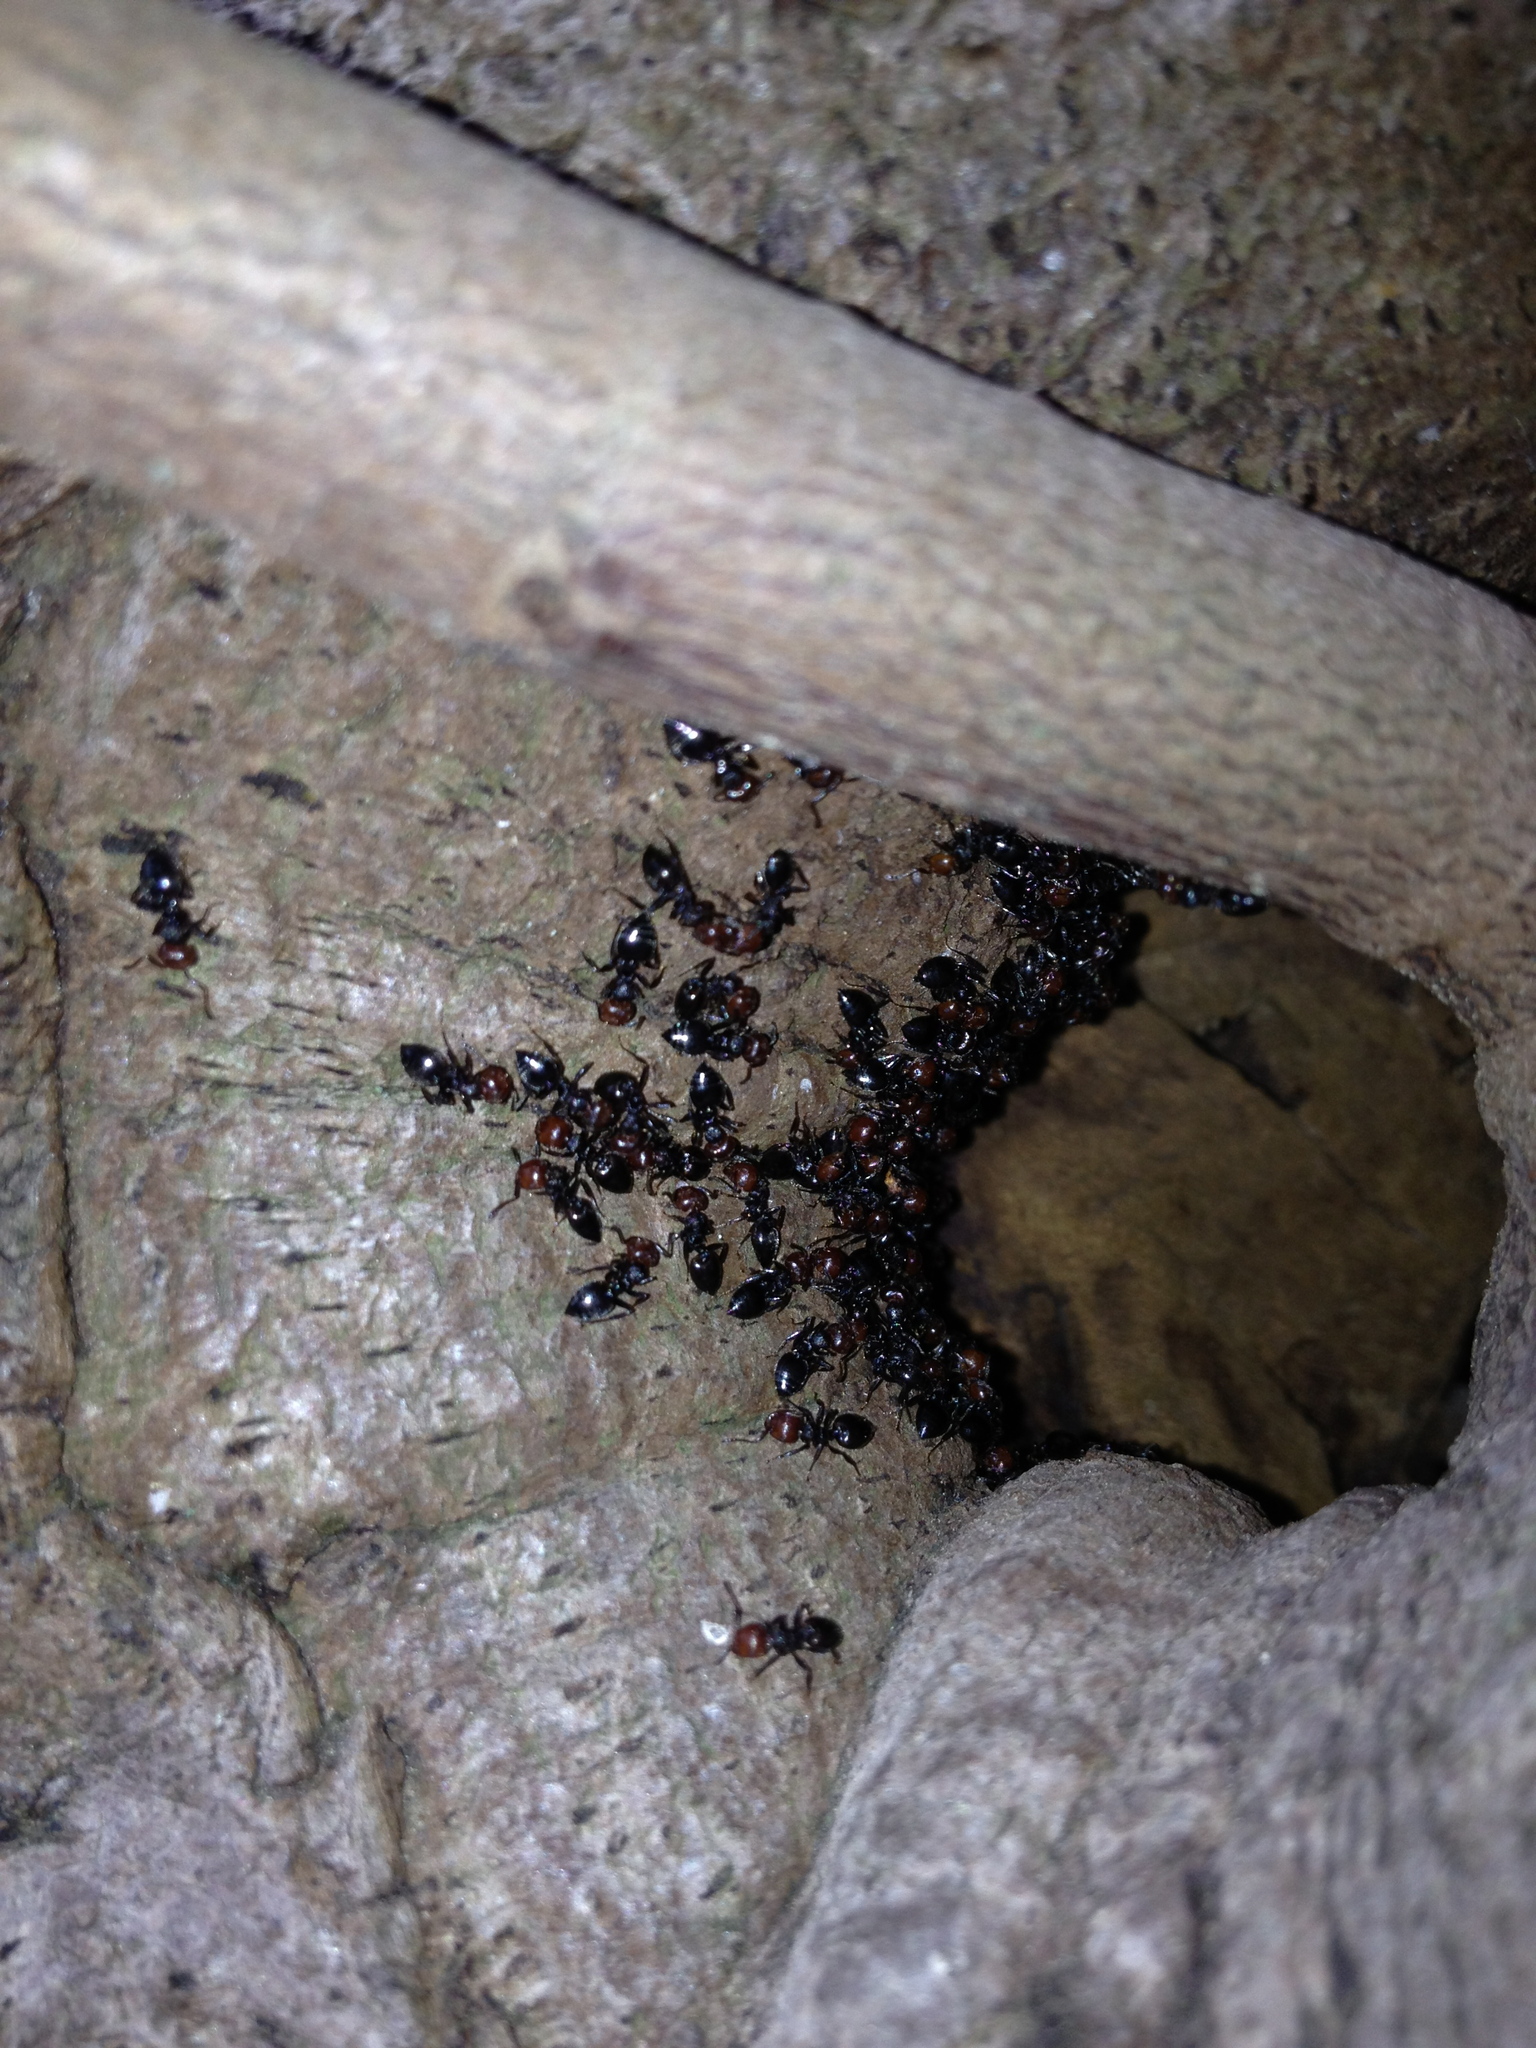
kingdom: Animalia
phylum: Arthropoda
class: Insecta
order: Hymenoptera
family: Formicidae
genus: Crematogaster
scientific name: Crematogaster scutellaris
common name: Fourmi du liège
